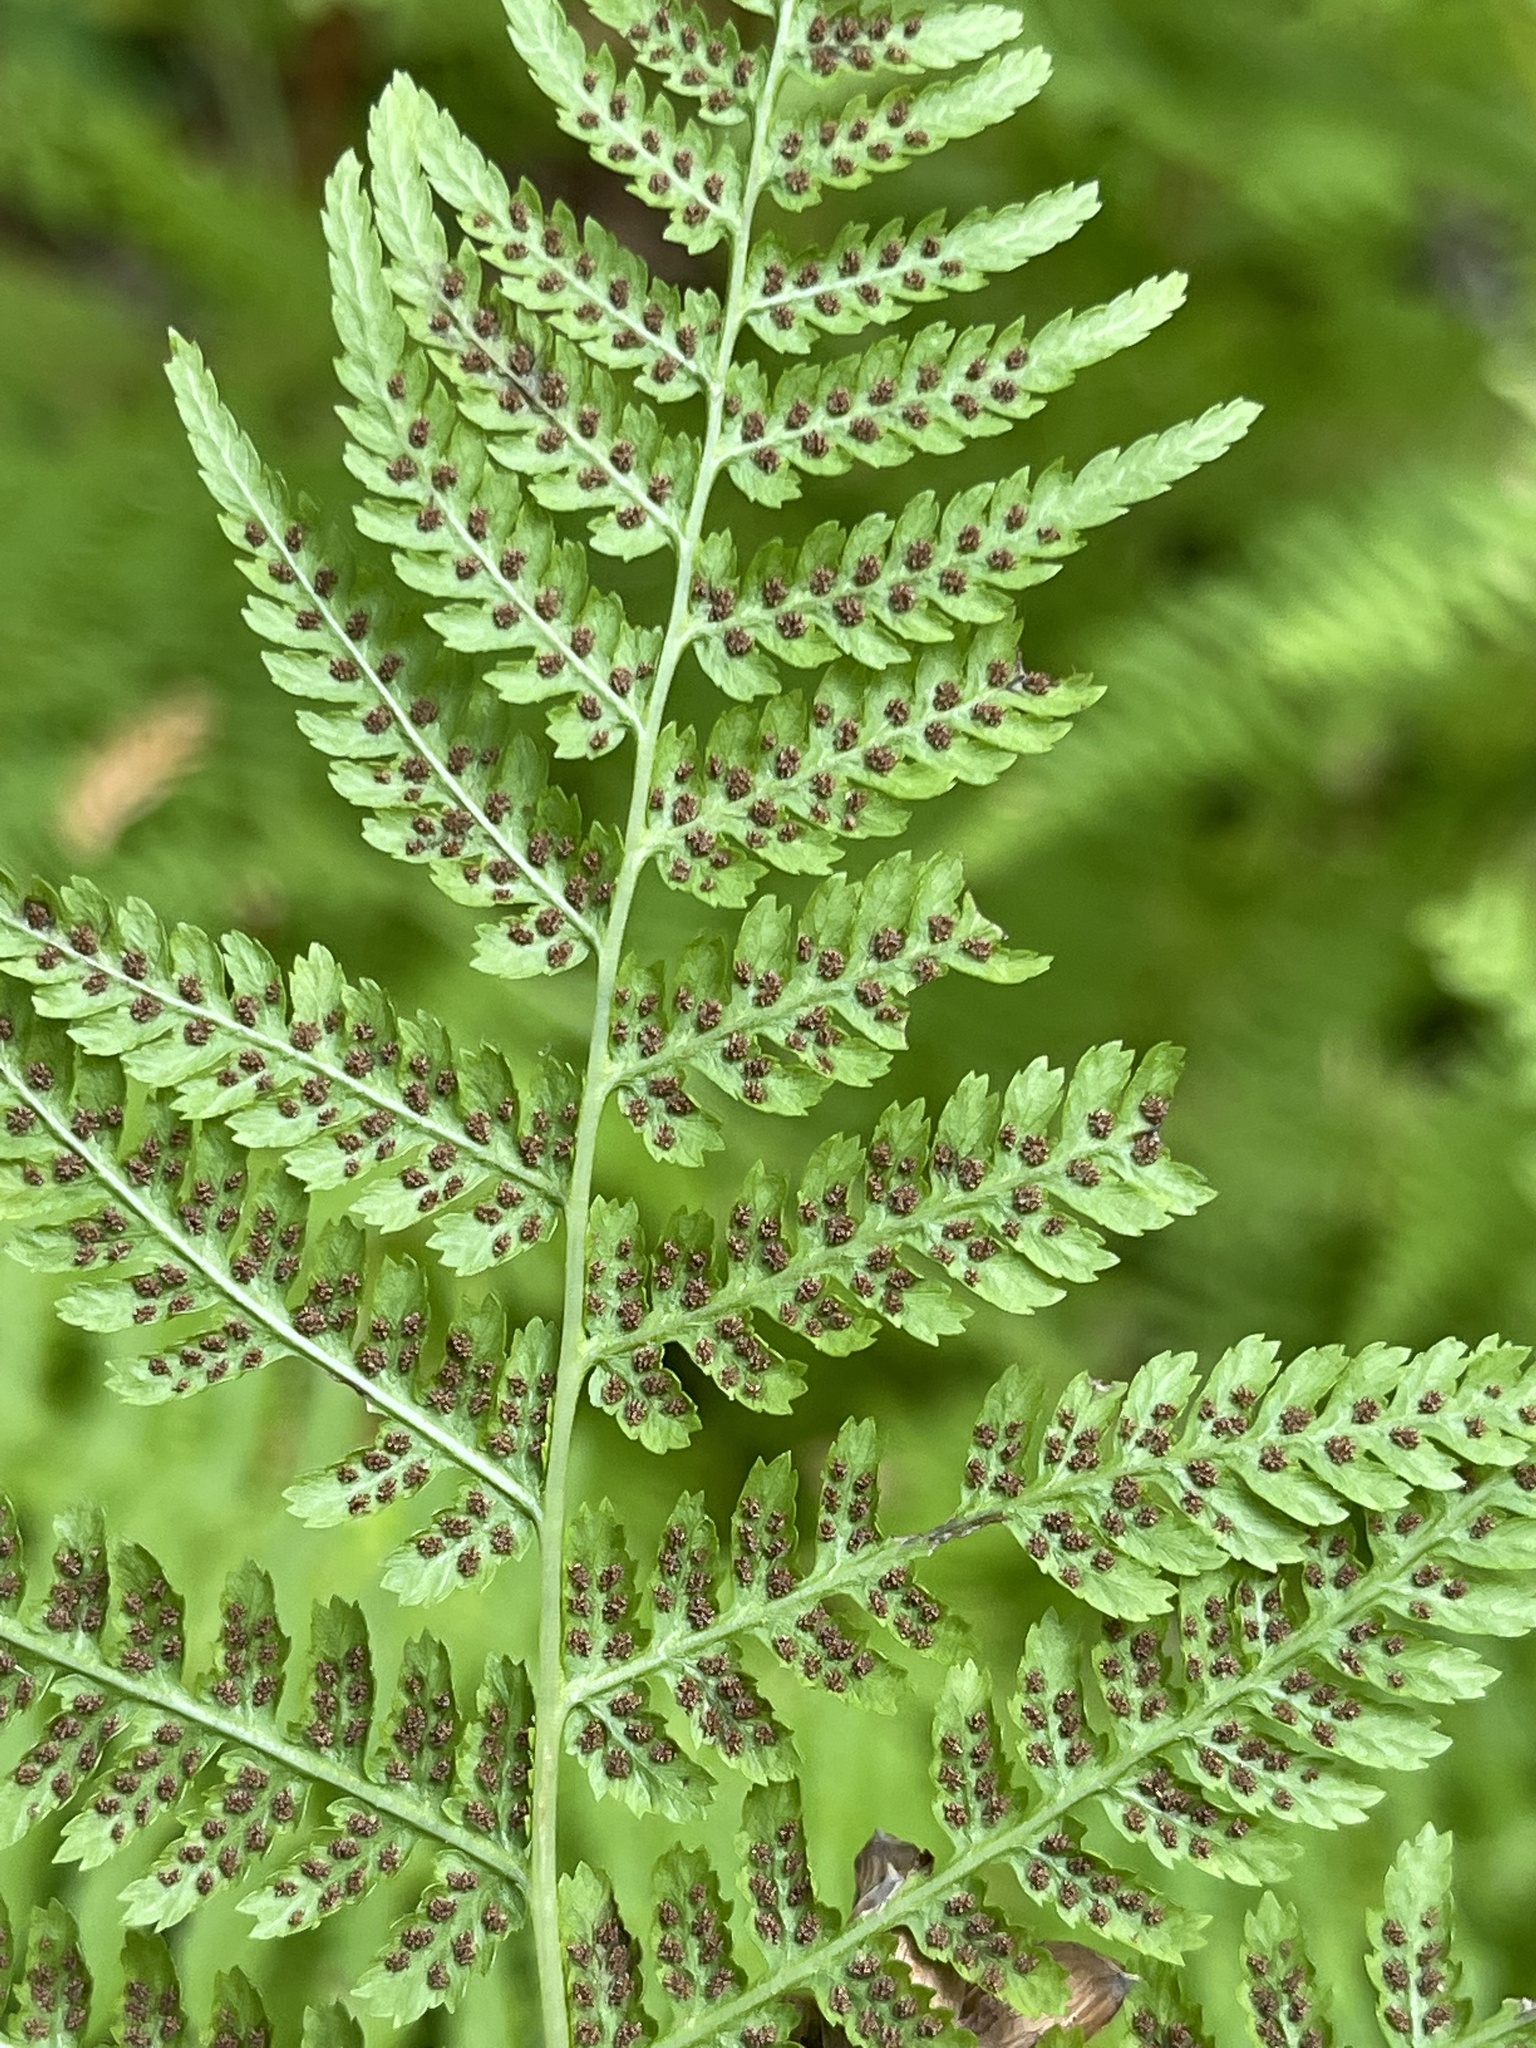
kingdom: Plantae
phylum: Tracheophyta
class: Polypodiopsida
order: Polypodiales
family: Athyriaceae
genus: Athyrium
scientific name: Athyrium filix-femina
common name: Lady fern
